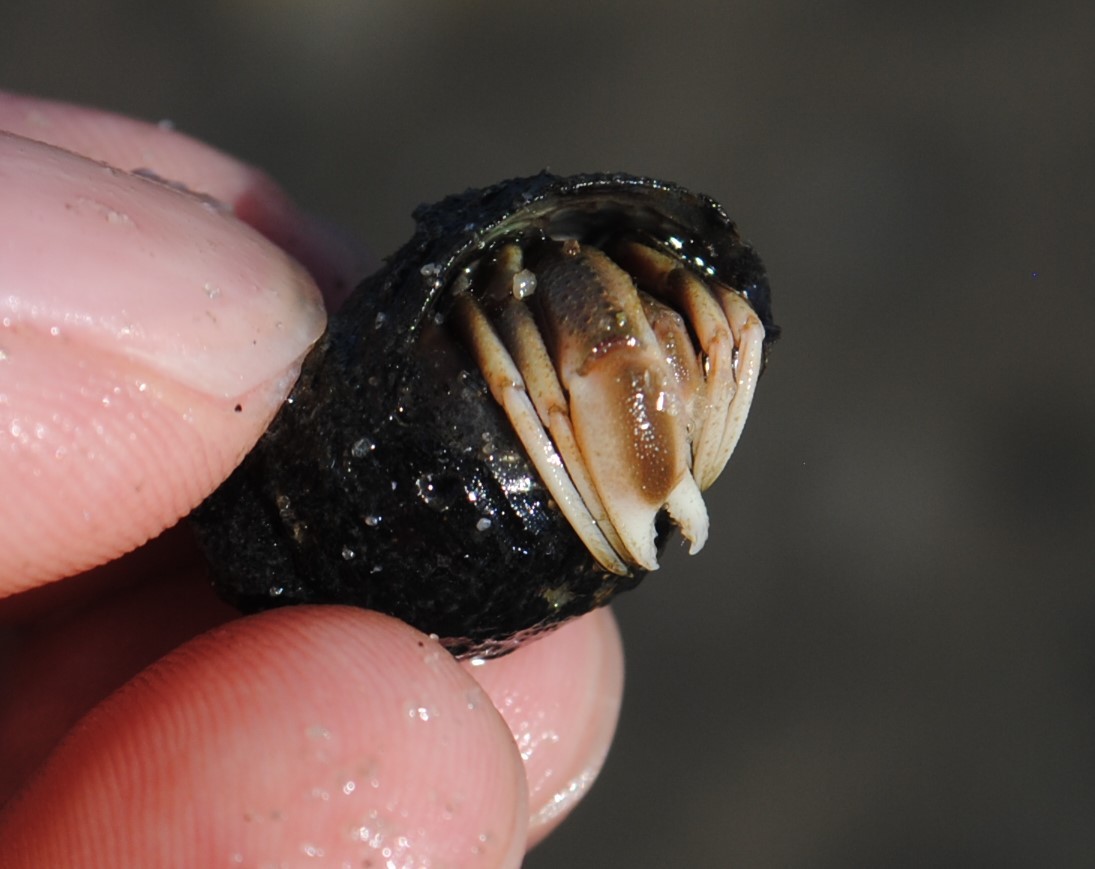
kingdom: Animalia
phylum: Arthropoda
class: Malacostraca
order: Decapoda
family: Paguridae
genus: Pagurus
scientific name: Pagurus longicarpus
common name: Long-armed hermit crab
